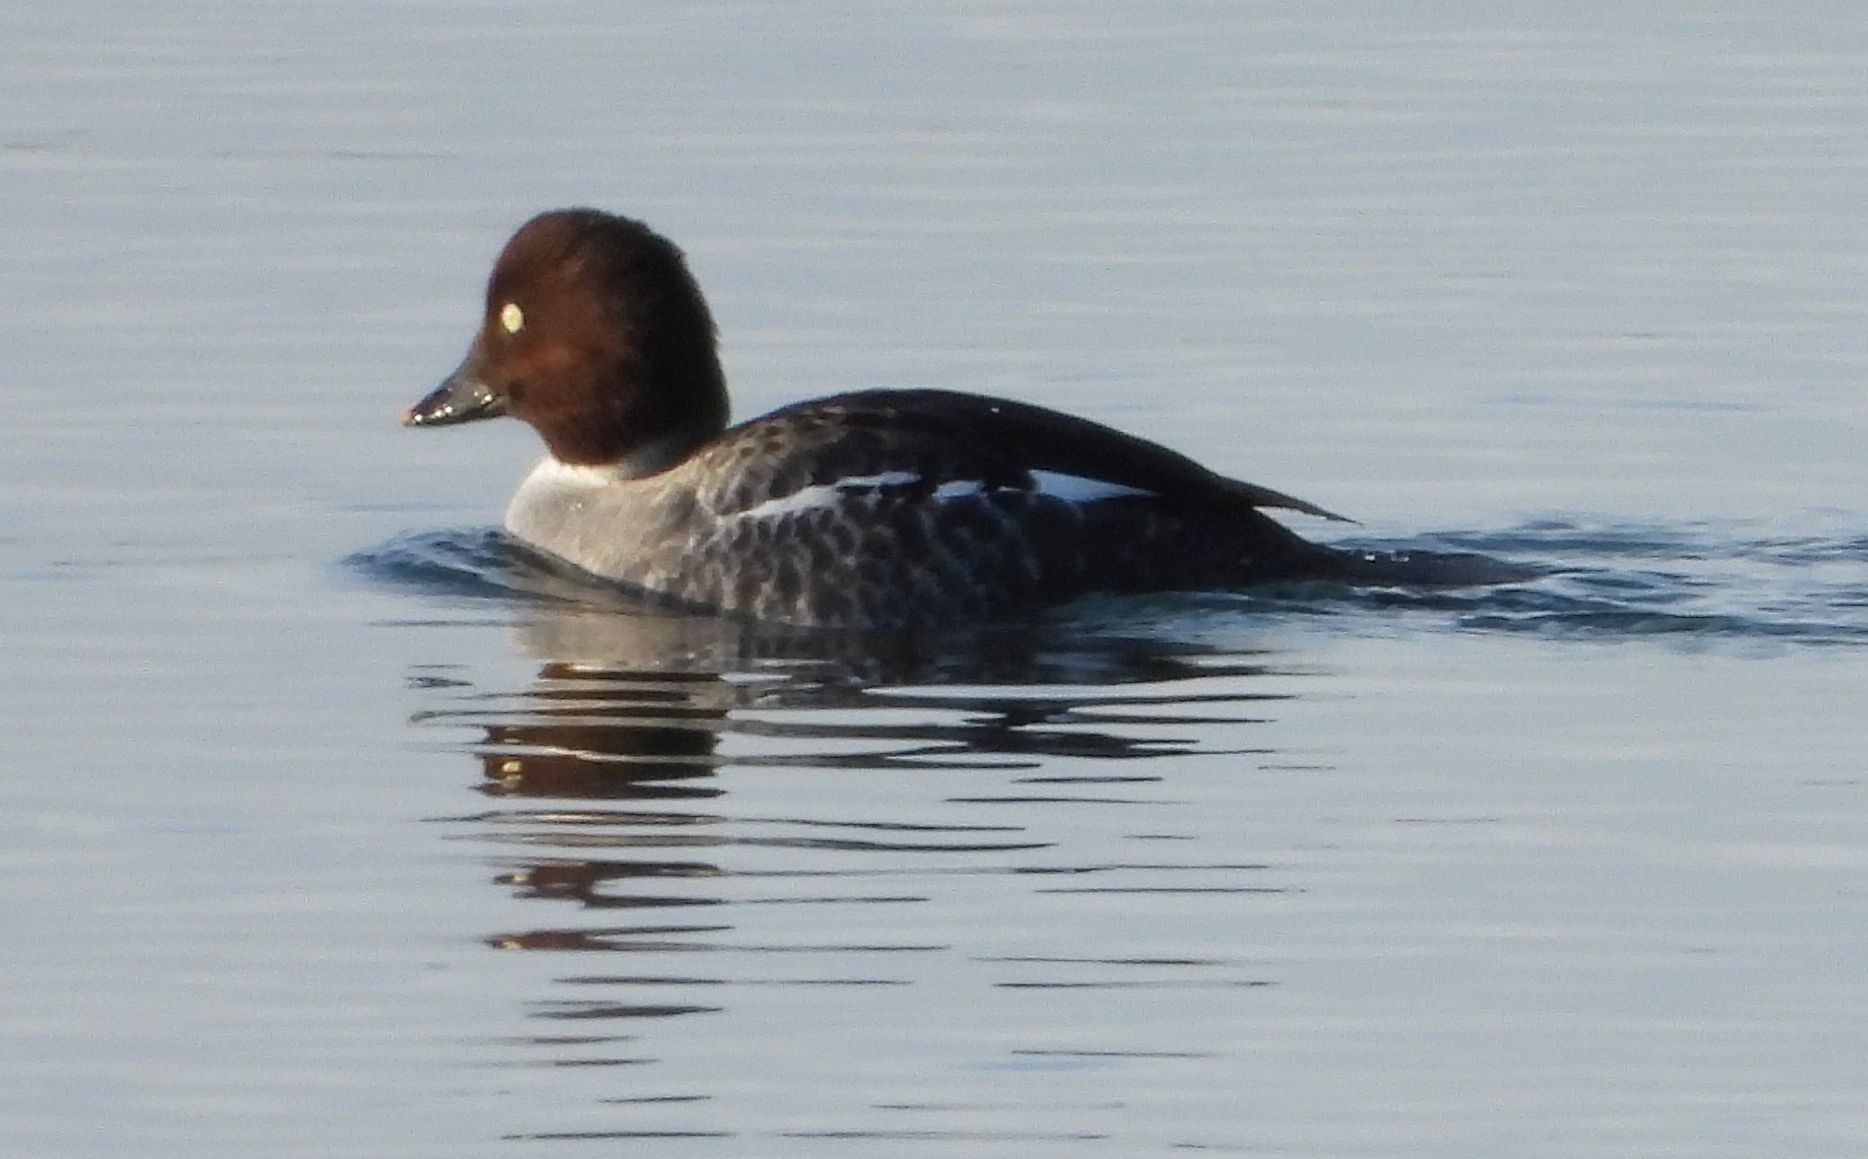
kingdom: Animalia
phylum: Chordata
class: Aves
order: Anseriformes
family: Anatidae
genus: Bucephala
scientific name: Bucephala clangula
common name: Common goldeneye
